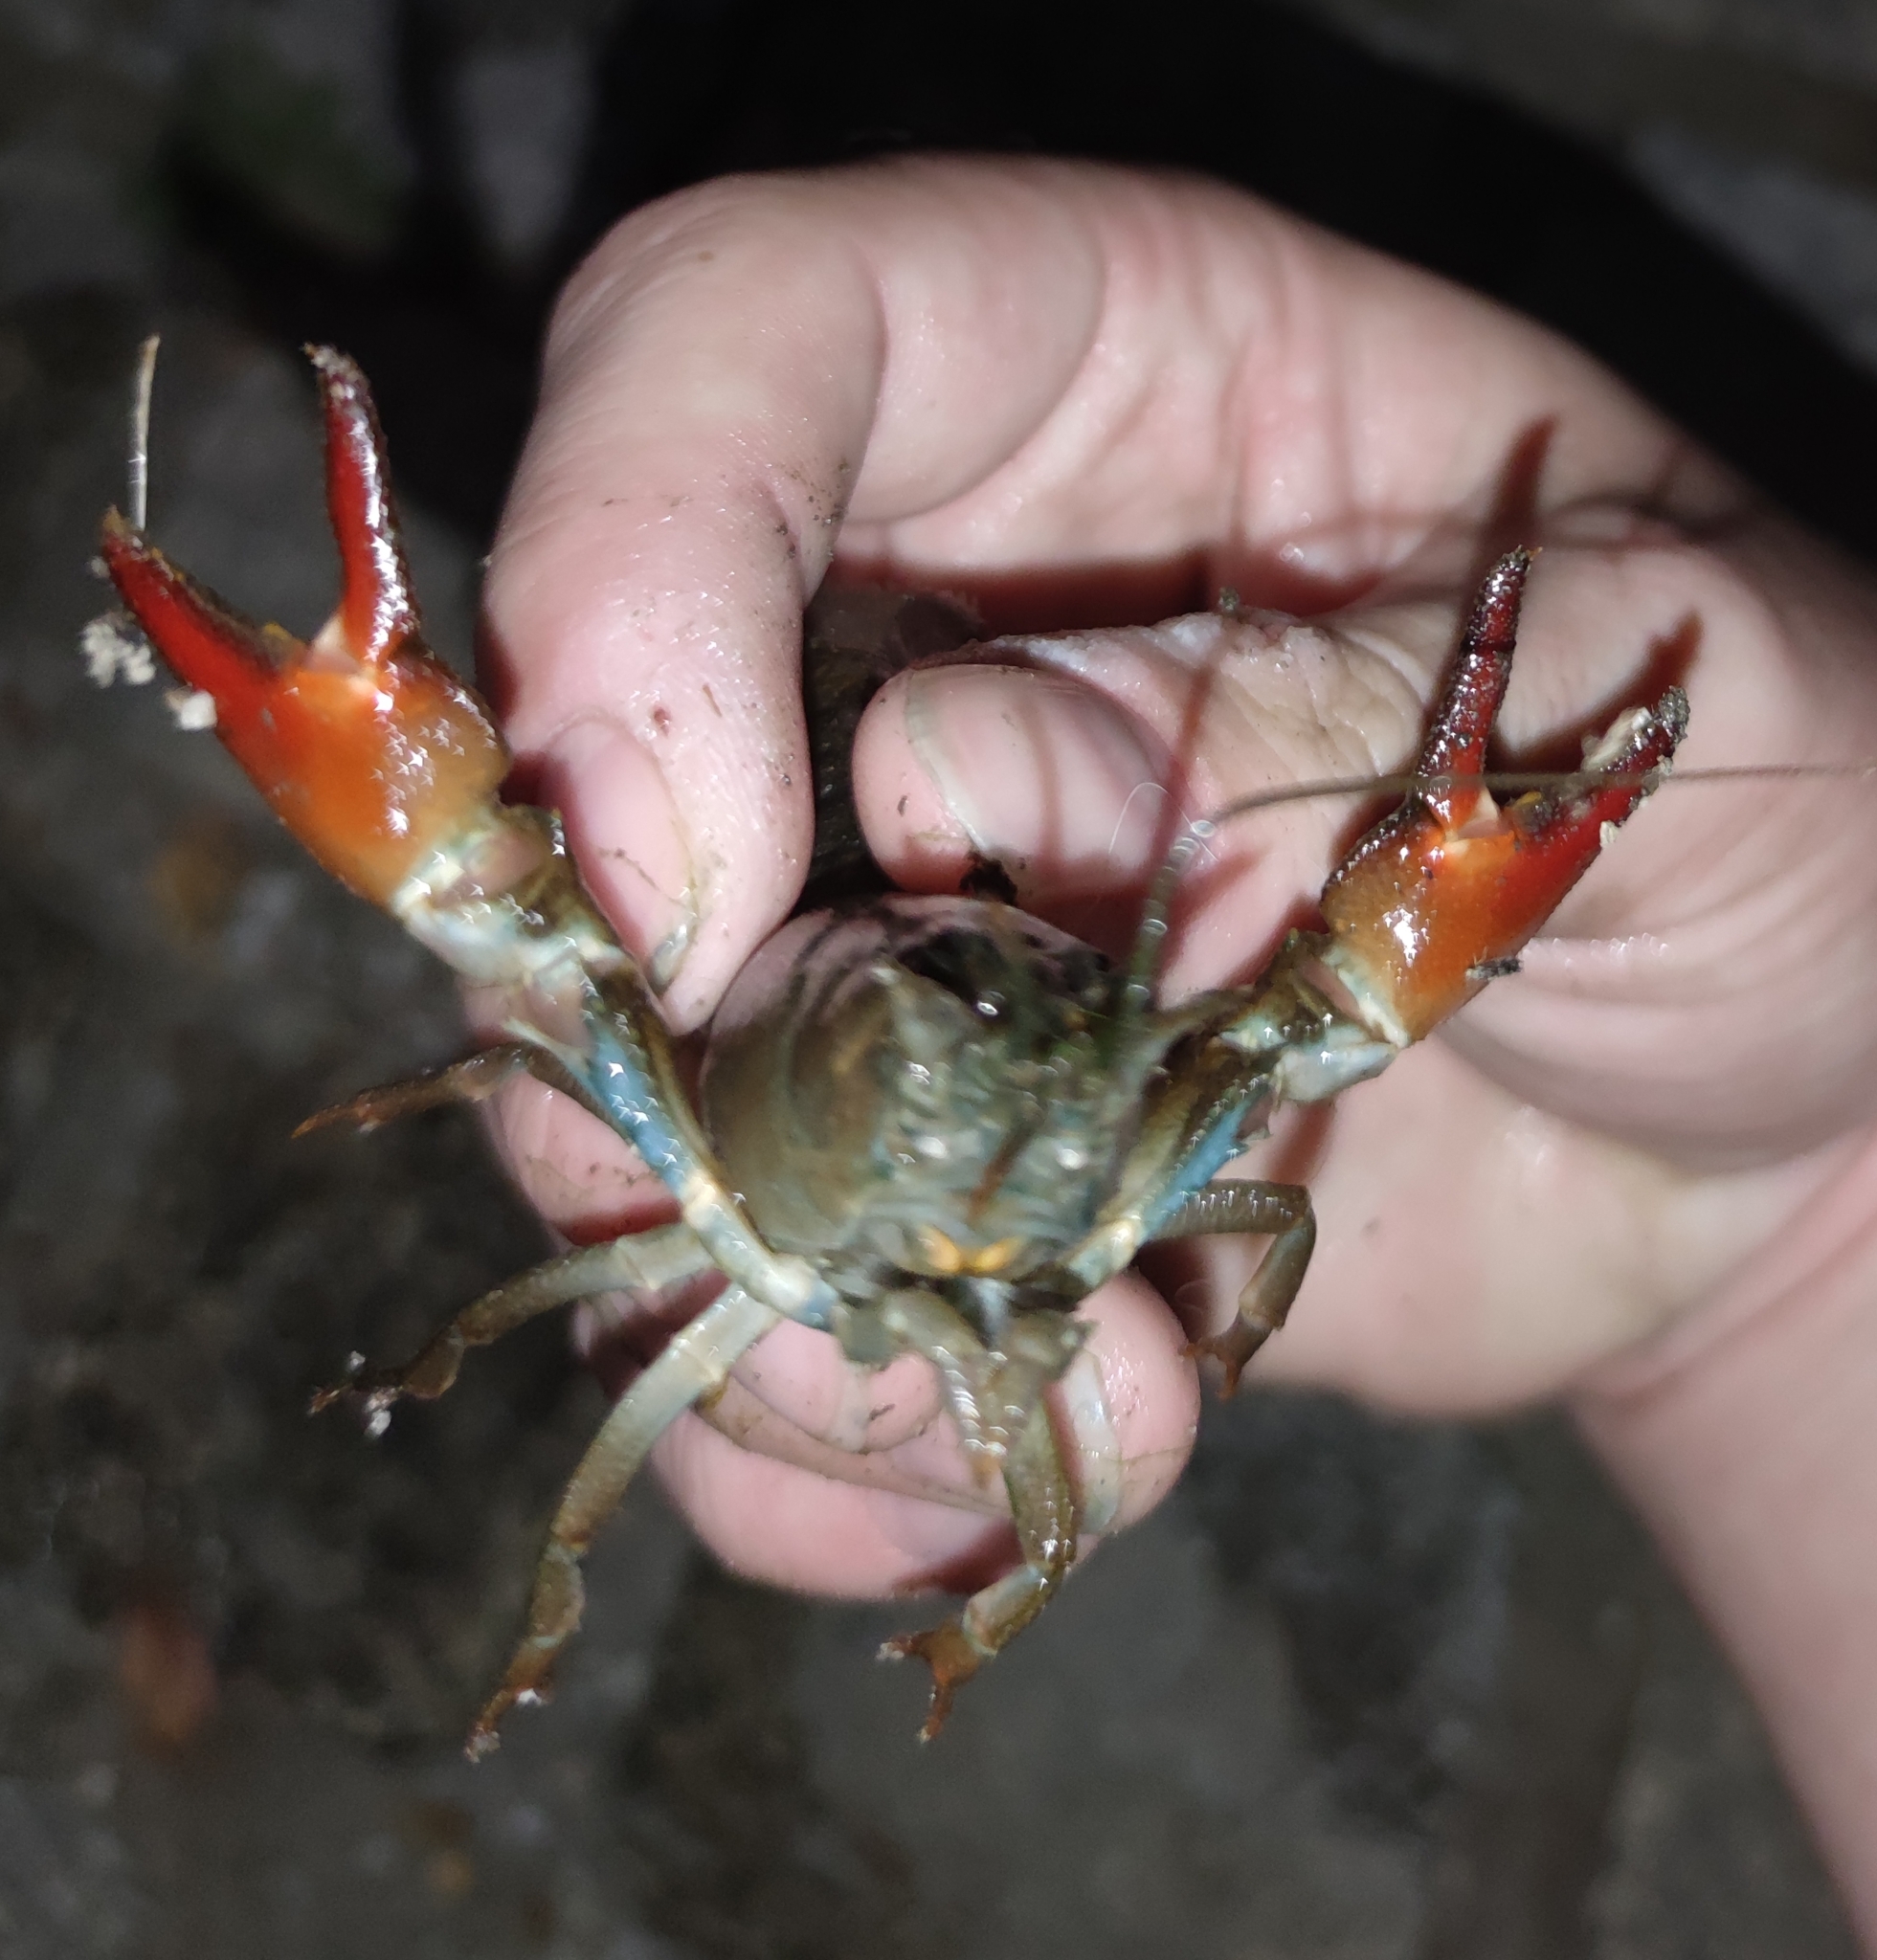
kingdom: Animalia
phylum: Arthropoda
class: Malacostraca
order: Decapoda
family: Astacidae
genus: Pacifastacus
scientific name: Pacifastacus leniusculus
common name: Signal crayfish
